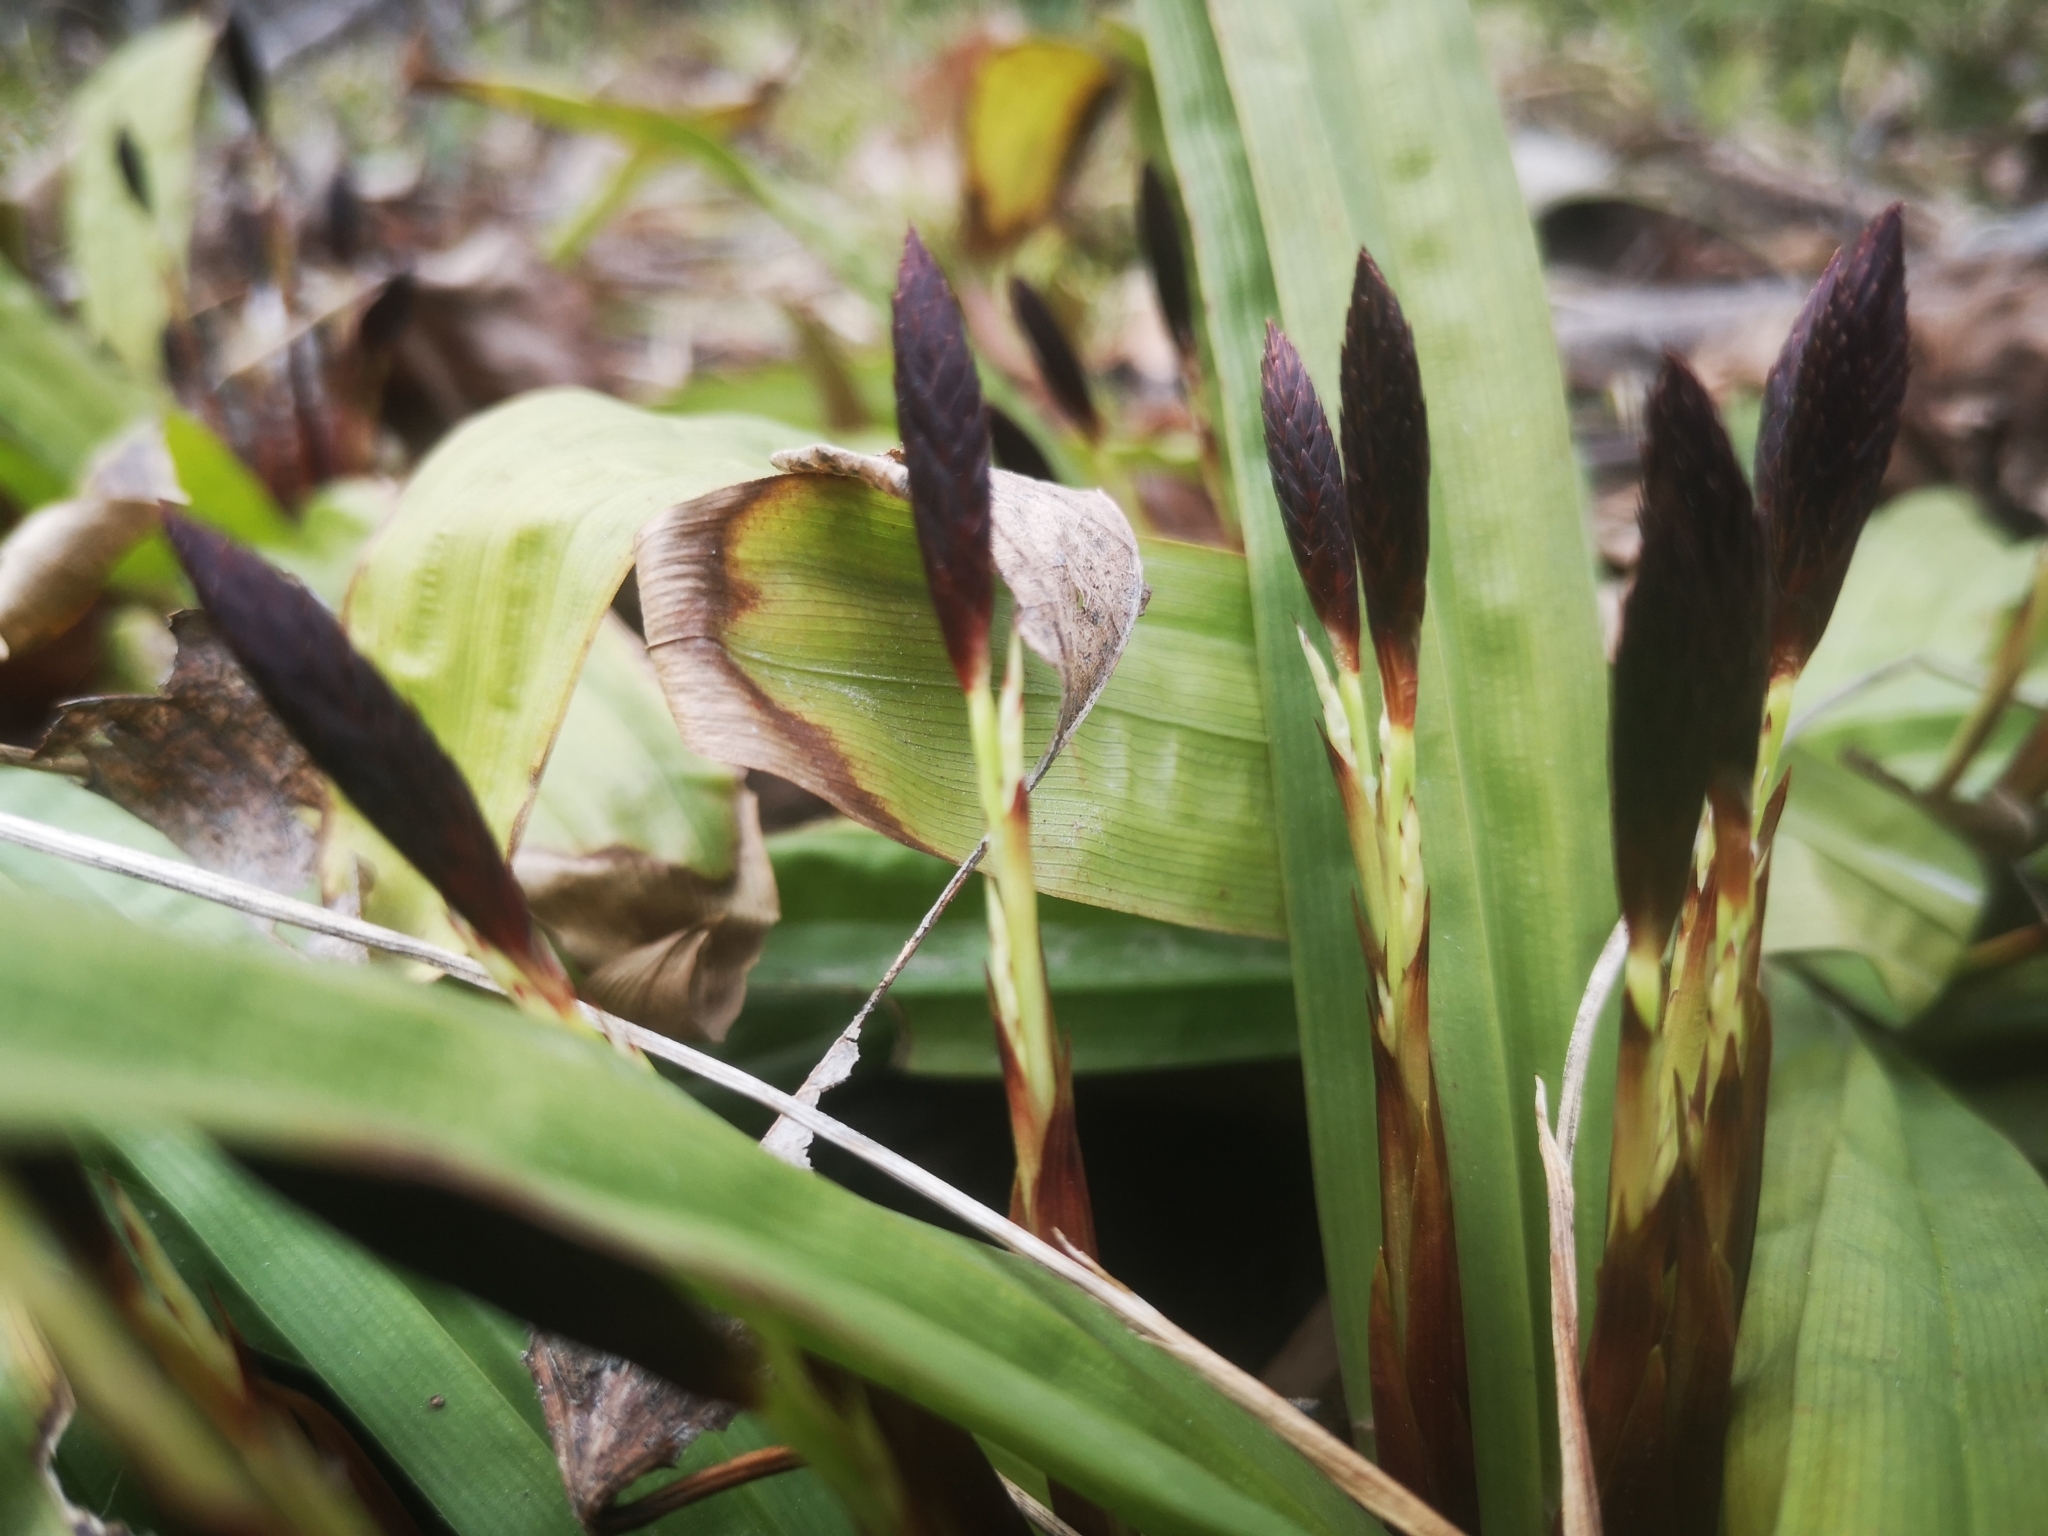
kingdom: Plantae
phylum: Tracheophyta
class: Liliopsida
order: Poales
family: Cyperaceae
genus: Carex
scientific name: Carex plantaginea
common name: Plantain-leaved sedge
